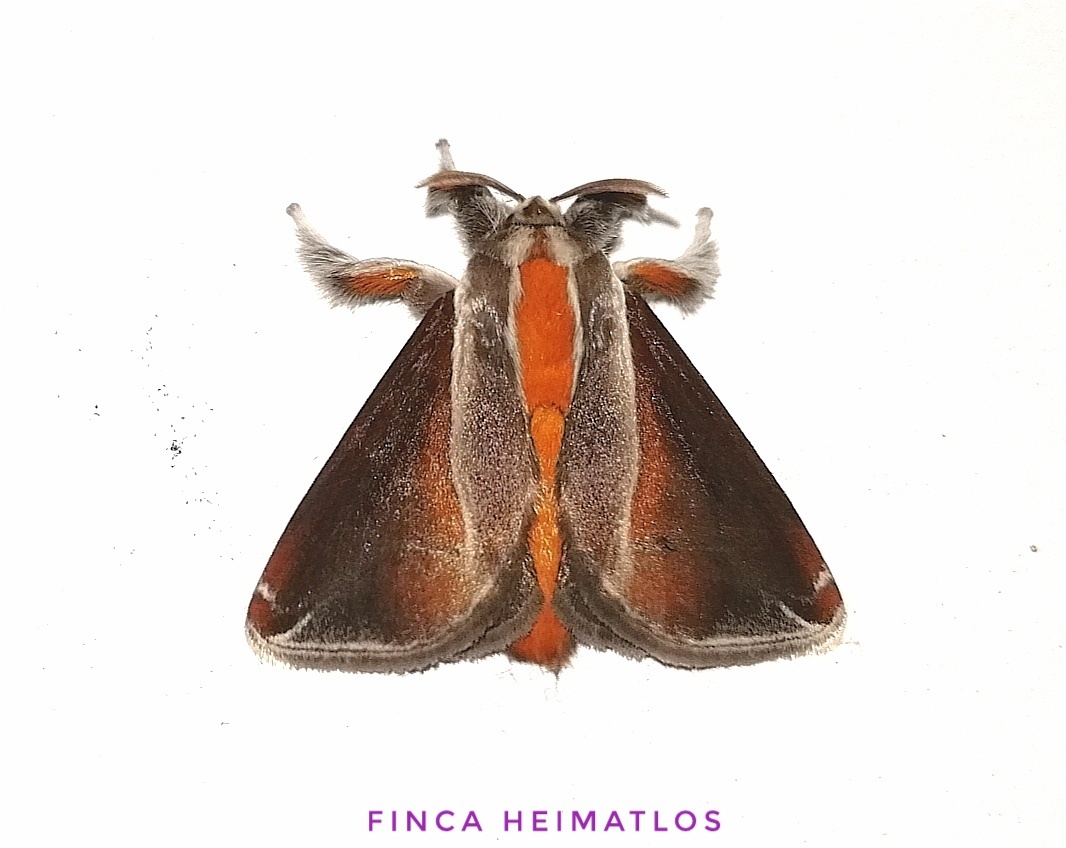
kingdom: Animalia
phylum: Arthropoda
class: Insecta
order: Lepidoptera
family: Limacodidae
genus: Epiperola
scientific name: Epiperola grandiosa
